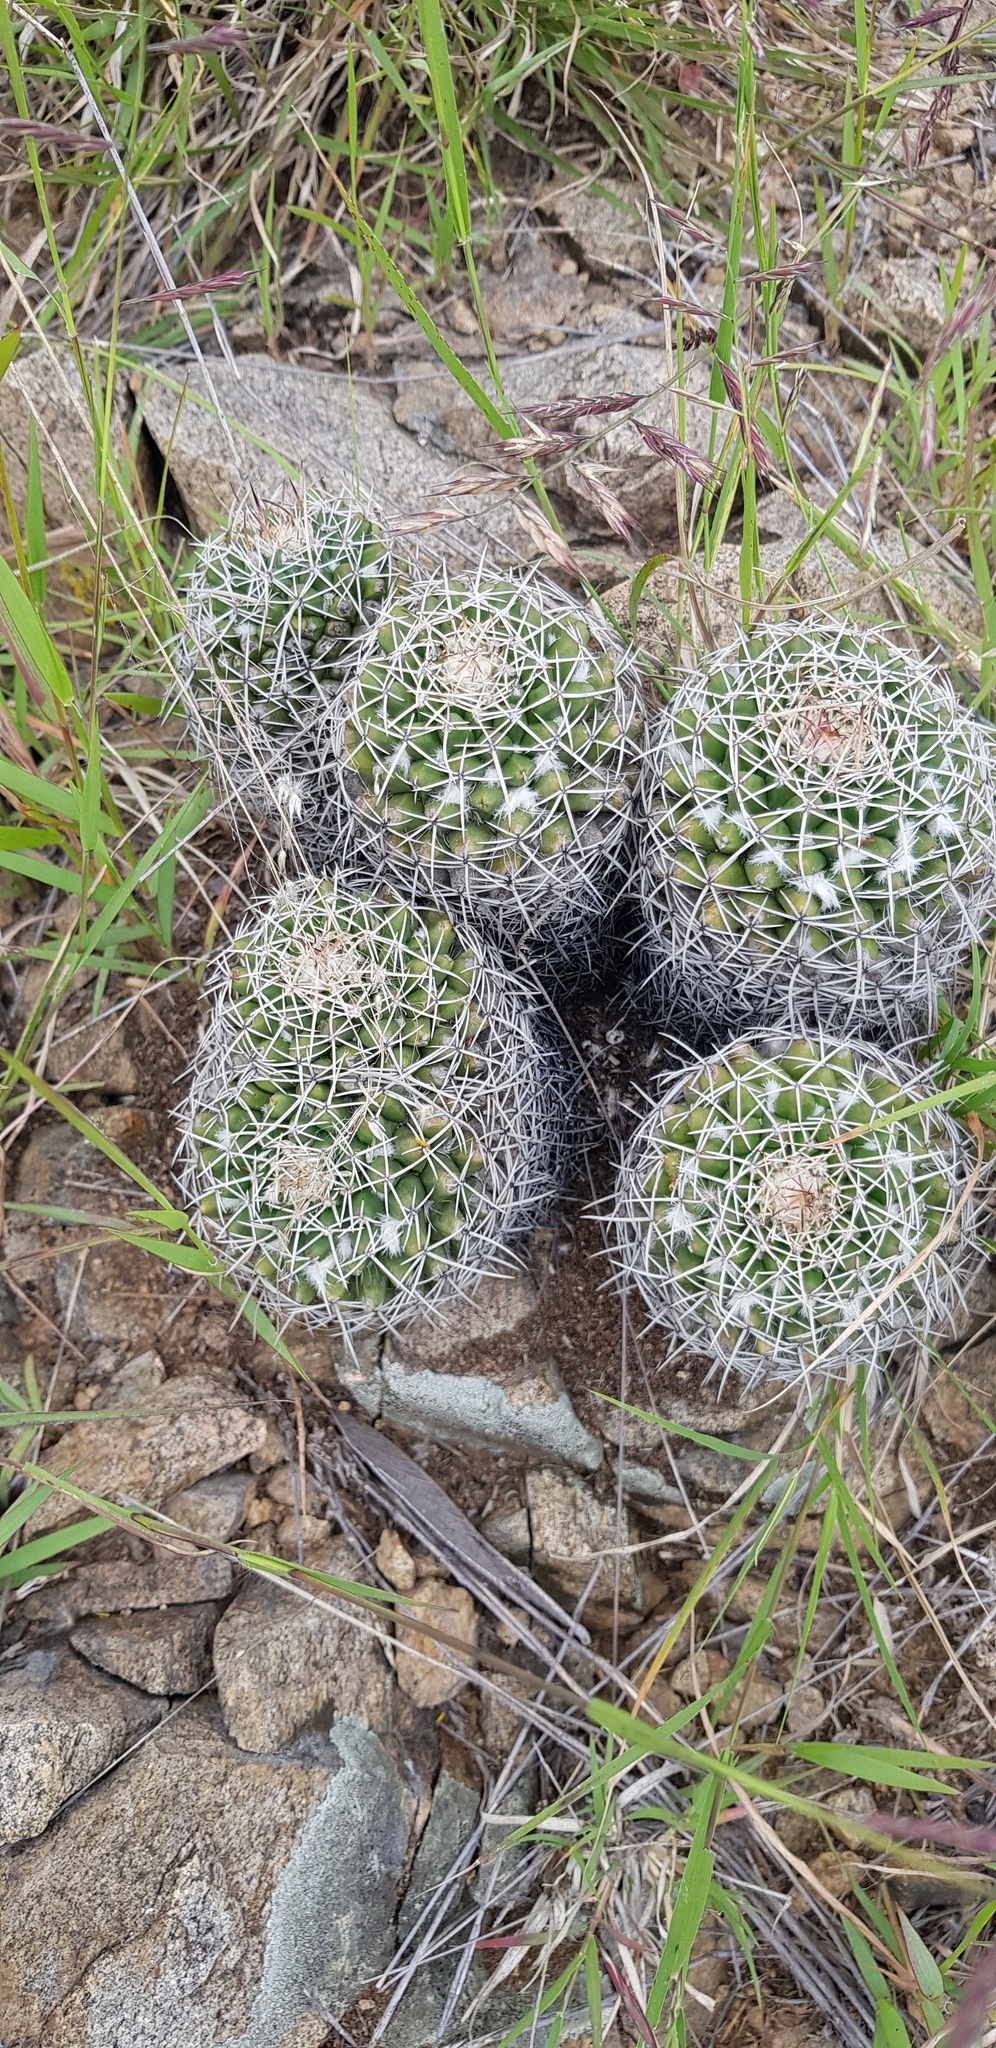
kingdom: Plantae
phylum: Tracheophyta
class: Magnoliopsida
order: Caryophyllales
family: Cactaceae
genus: Mammillaria
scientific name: Mammillaria karwinskiana
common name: Royal cross
